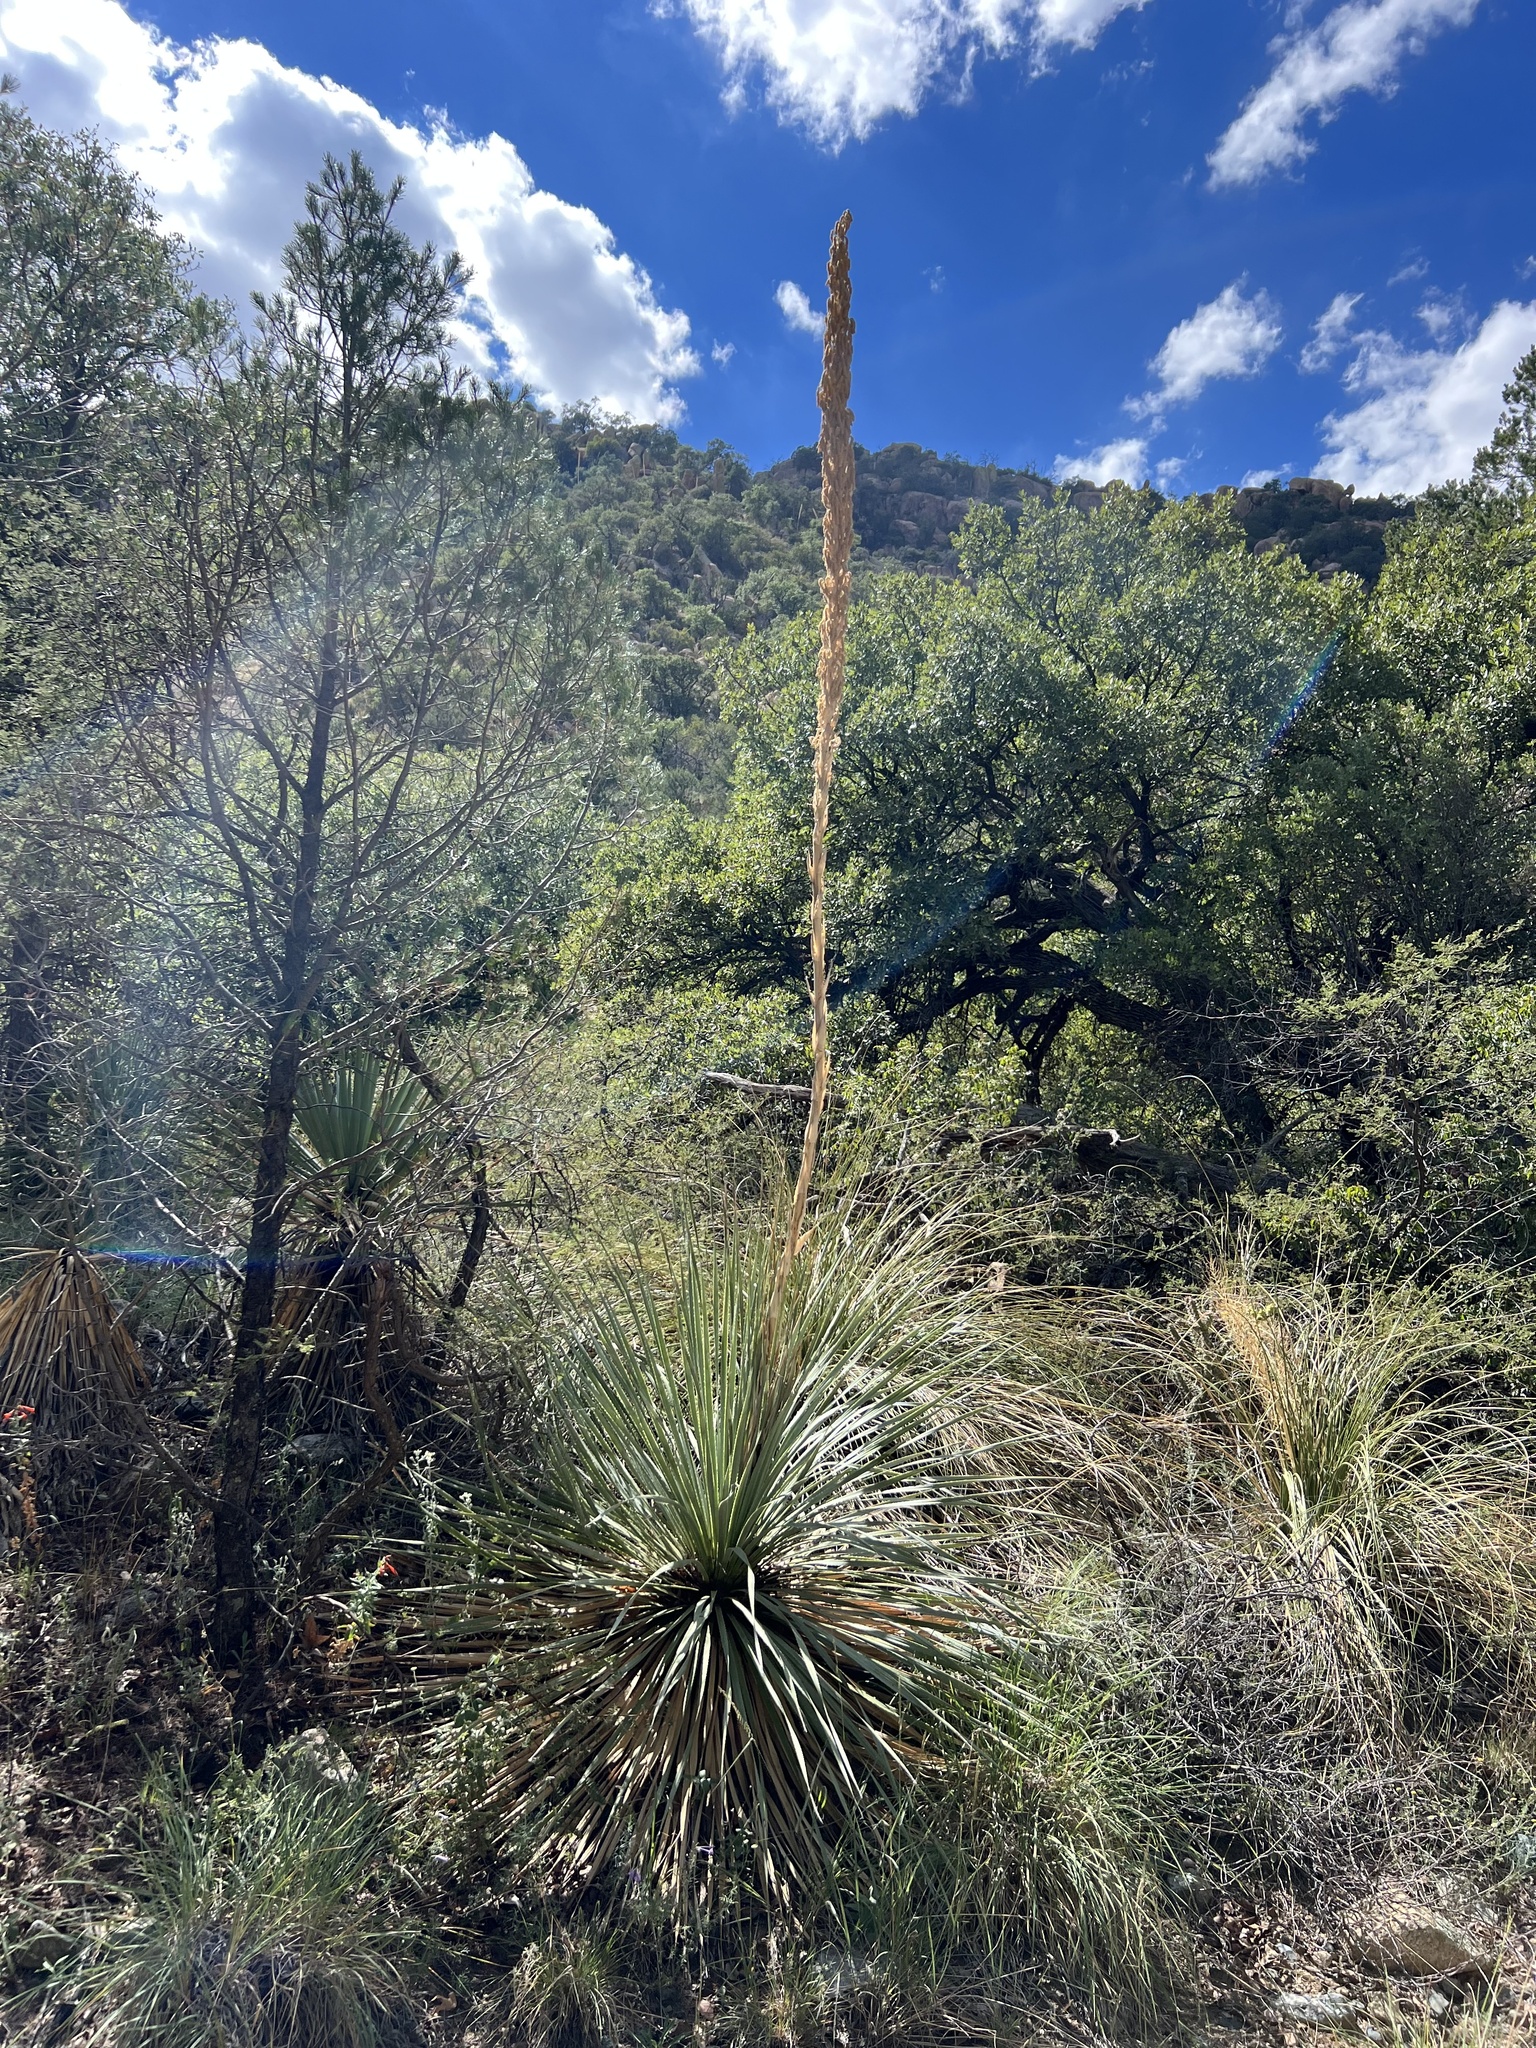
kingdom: Plantae
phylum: Tracheophyta
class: Liliopsida
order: Asparagales
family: Asparagaceae
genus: Dasylirion
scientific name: Dasylirion wheeleri
